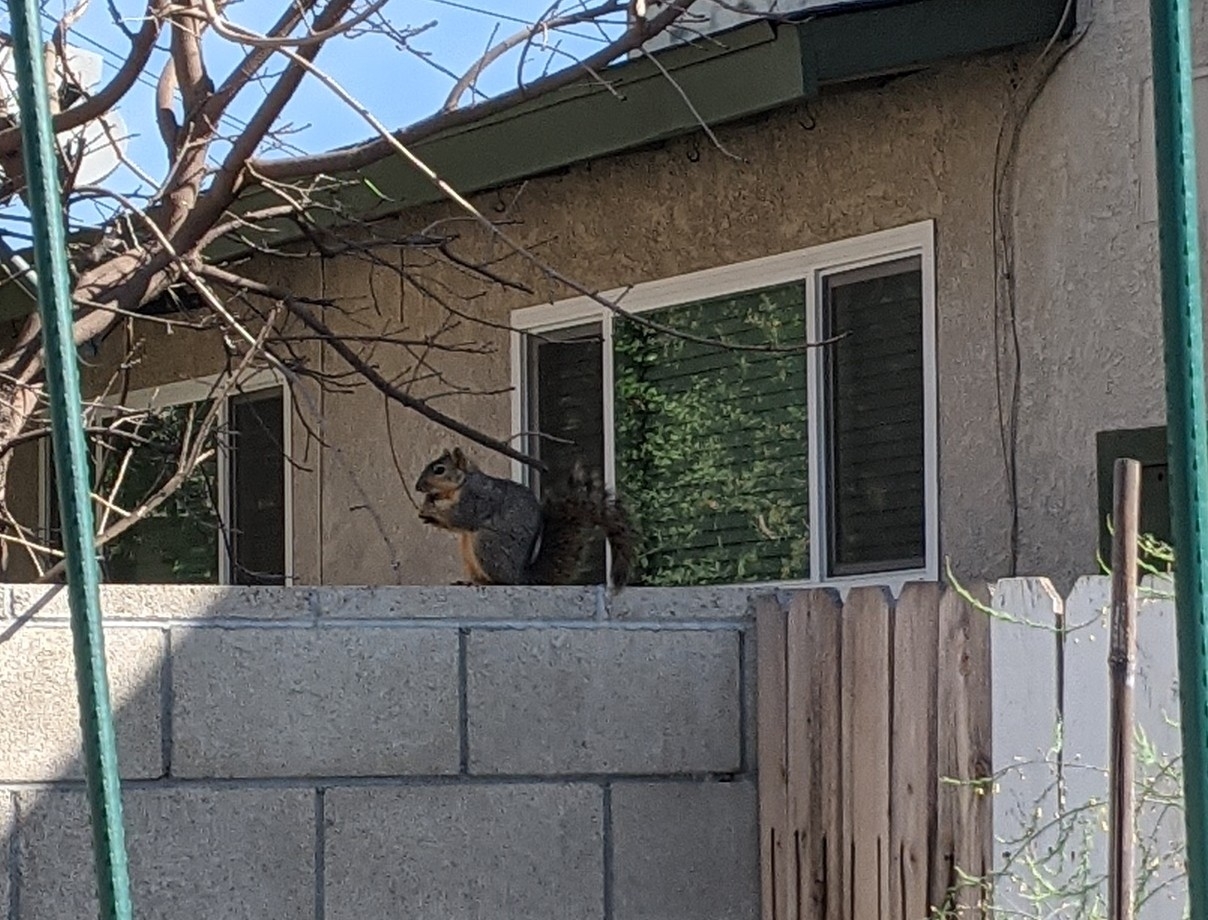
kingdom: Animalia
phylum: Chordata
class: Mammalia
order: Rodentia
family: Sciuridae
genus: Sciurus
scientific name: Sciurus niger
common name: Fox squirrel
